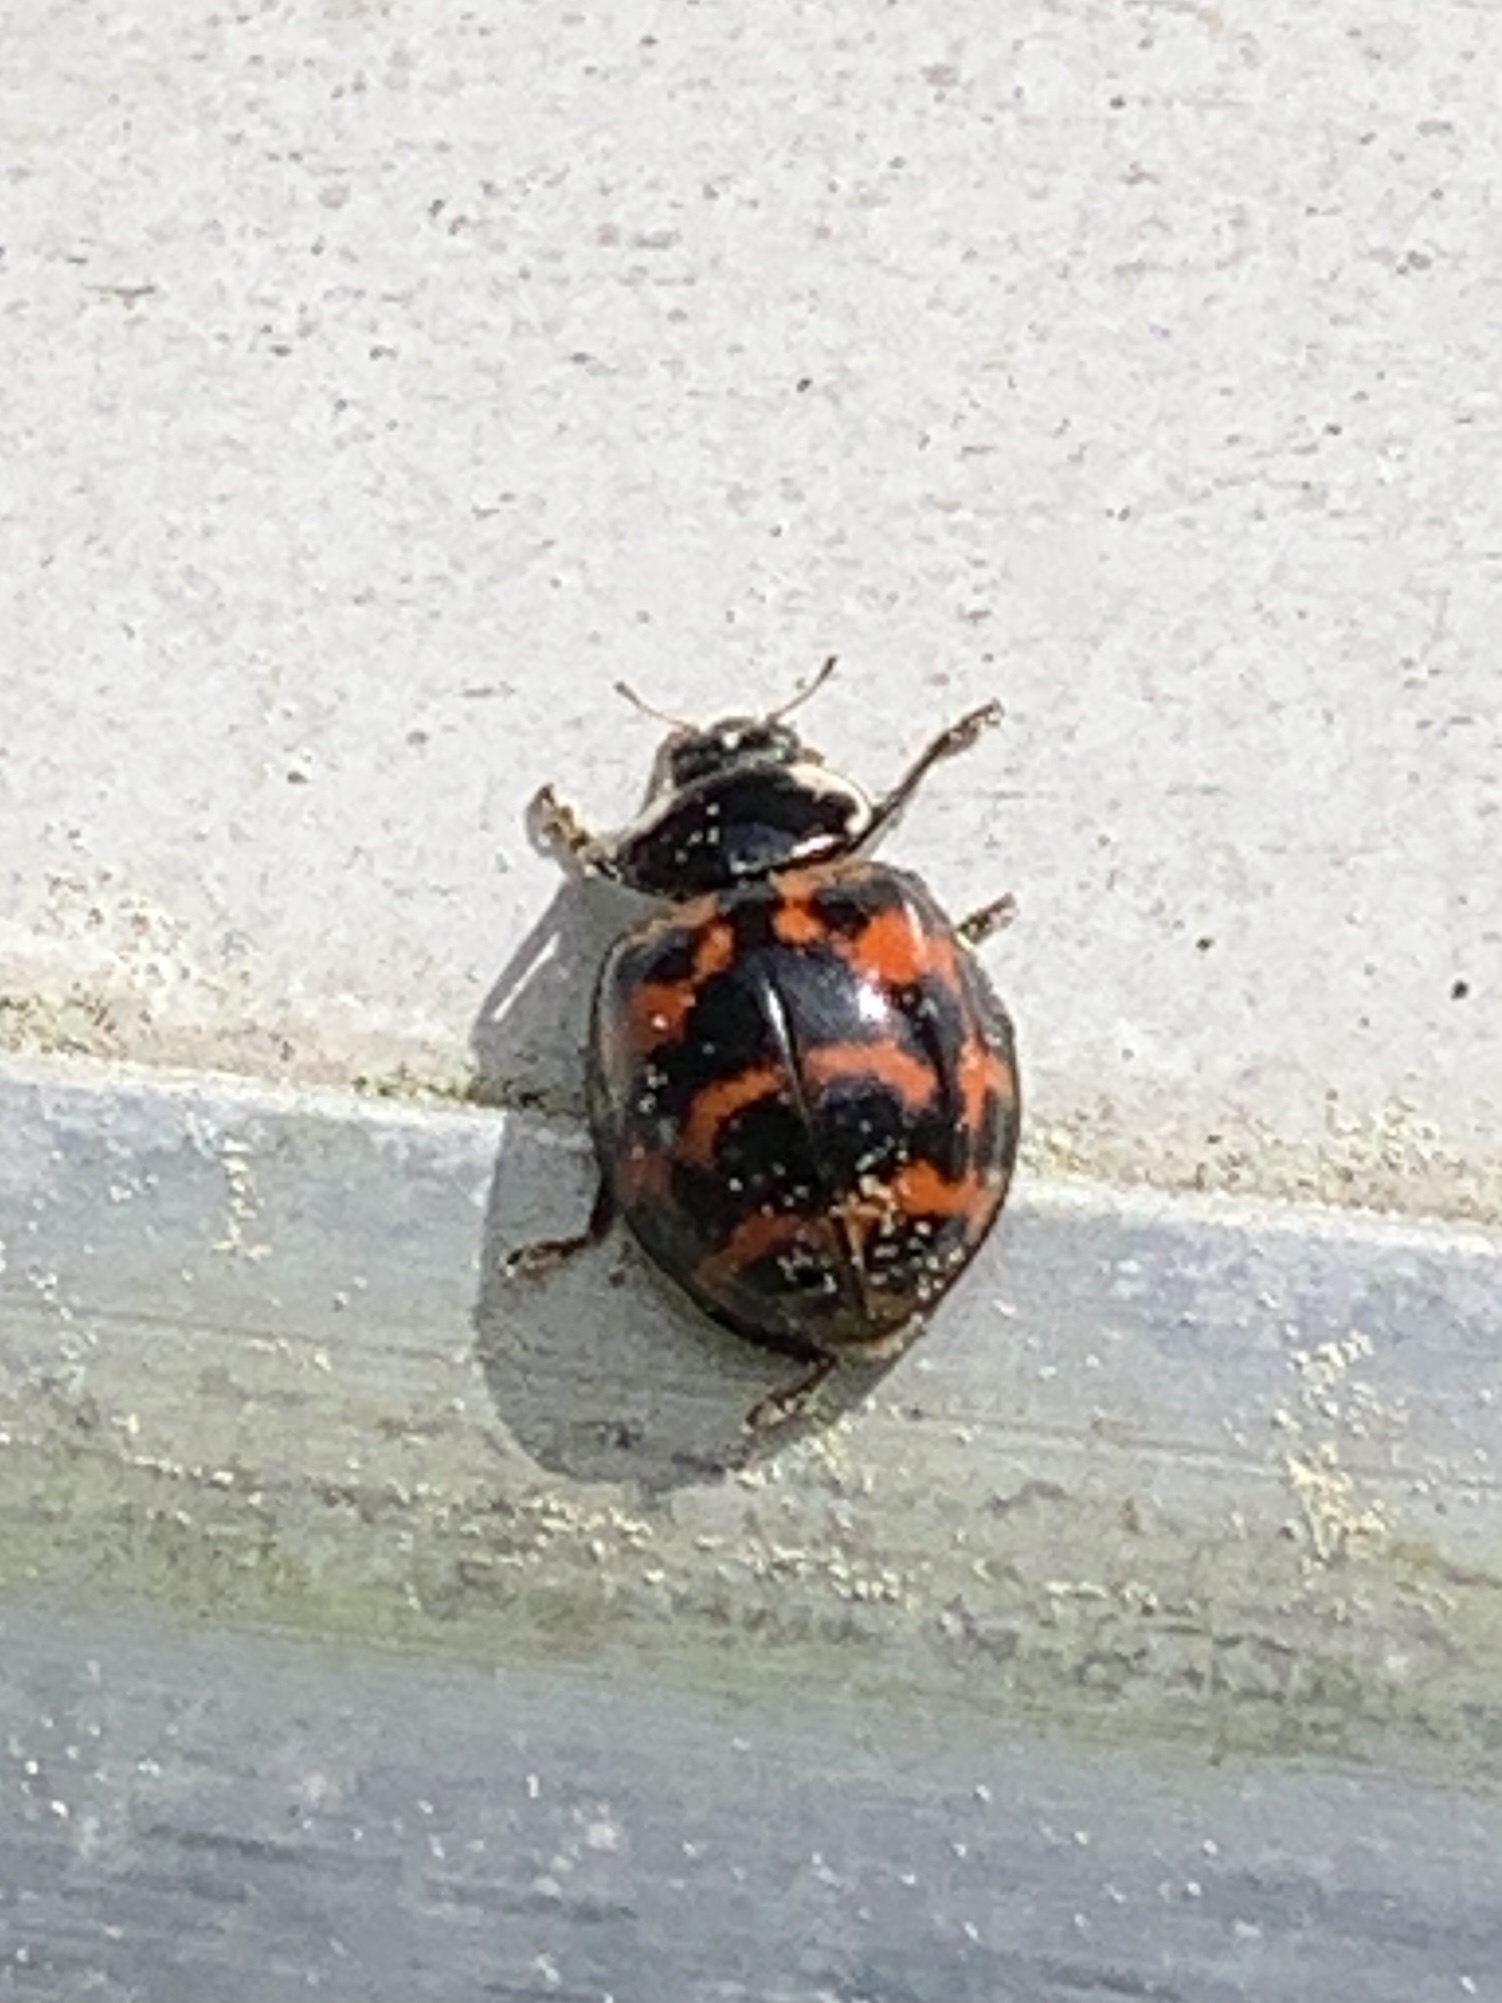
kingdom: Animalia
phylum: Arthropoda
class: Insecta
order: Coleoptera
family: Coccinellidae
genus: Harmonia
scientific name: Harmonia axyridis
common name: Harlequin ladybird
